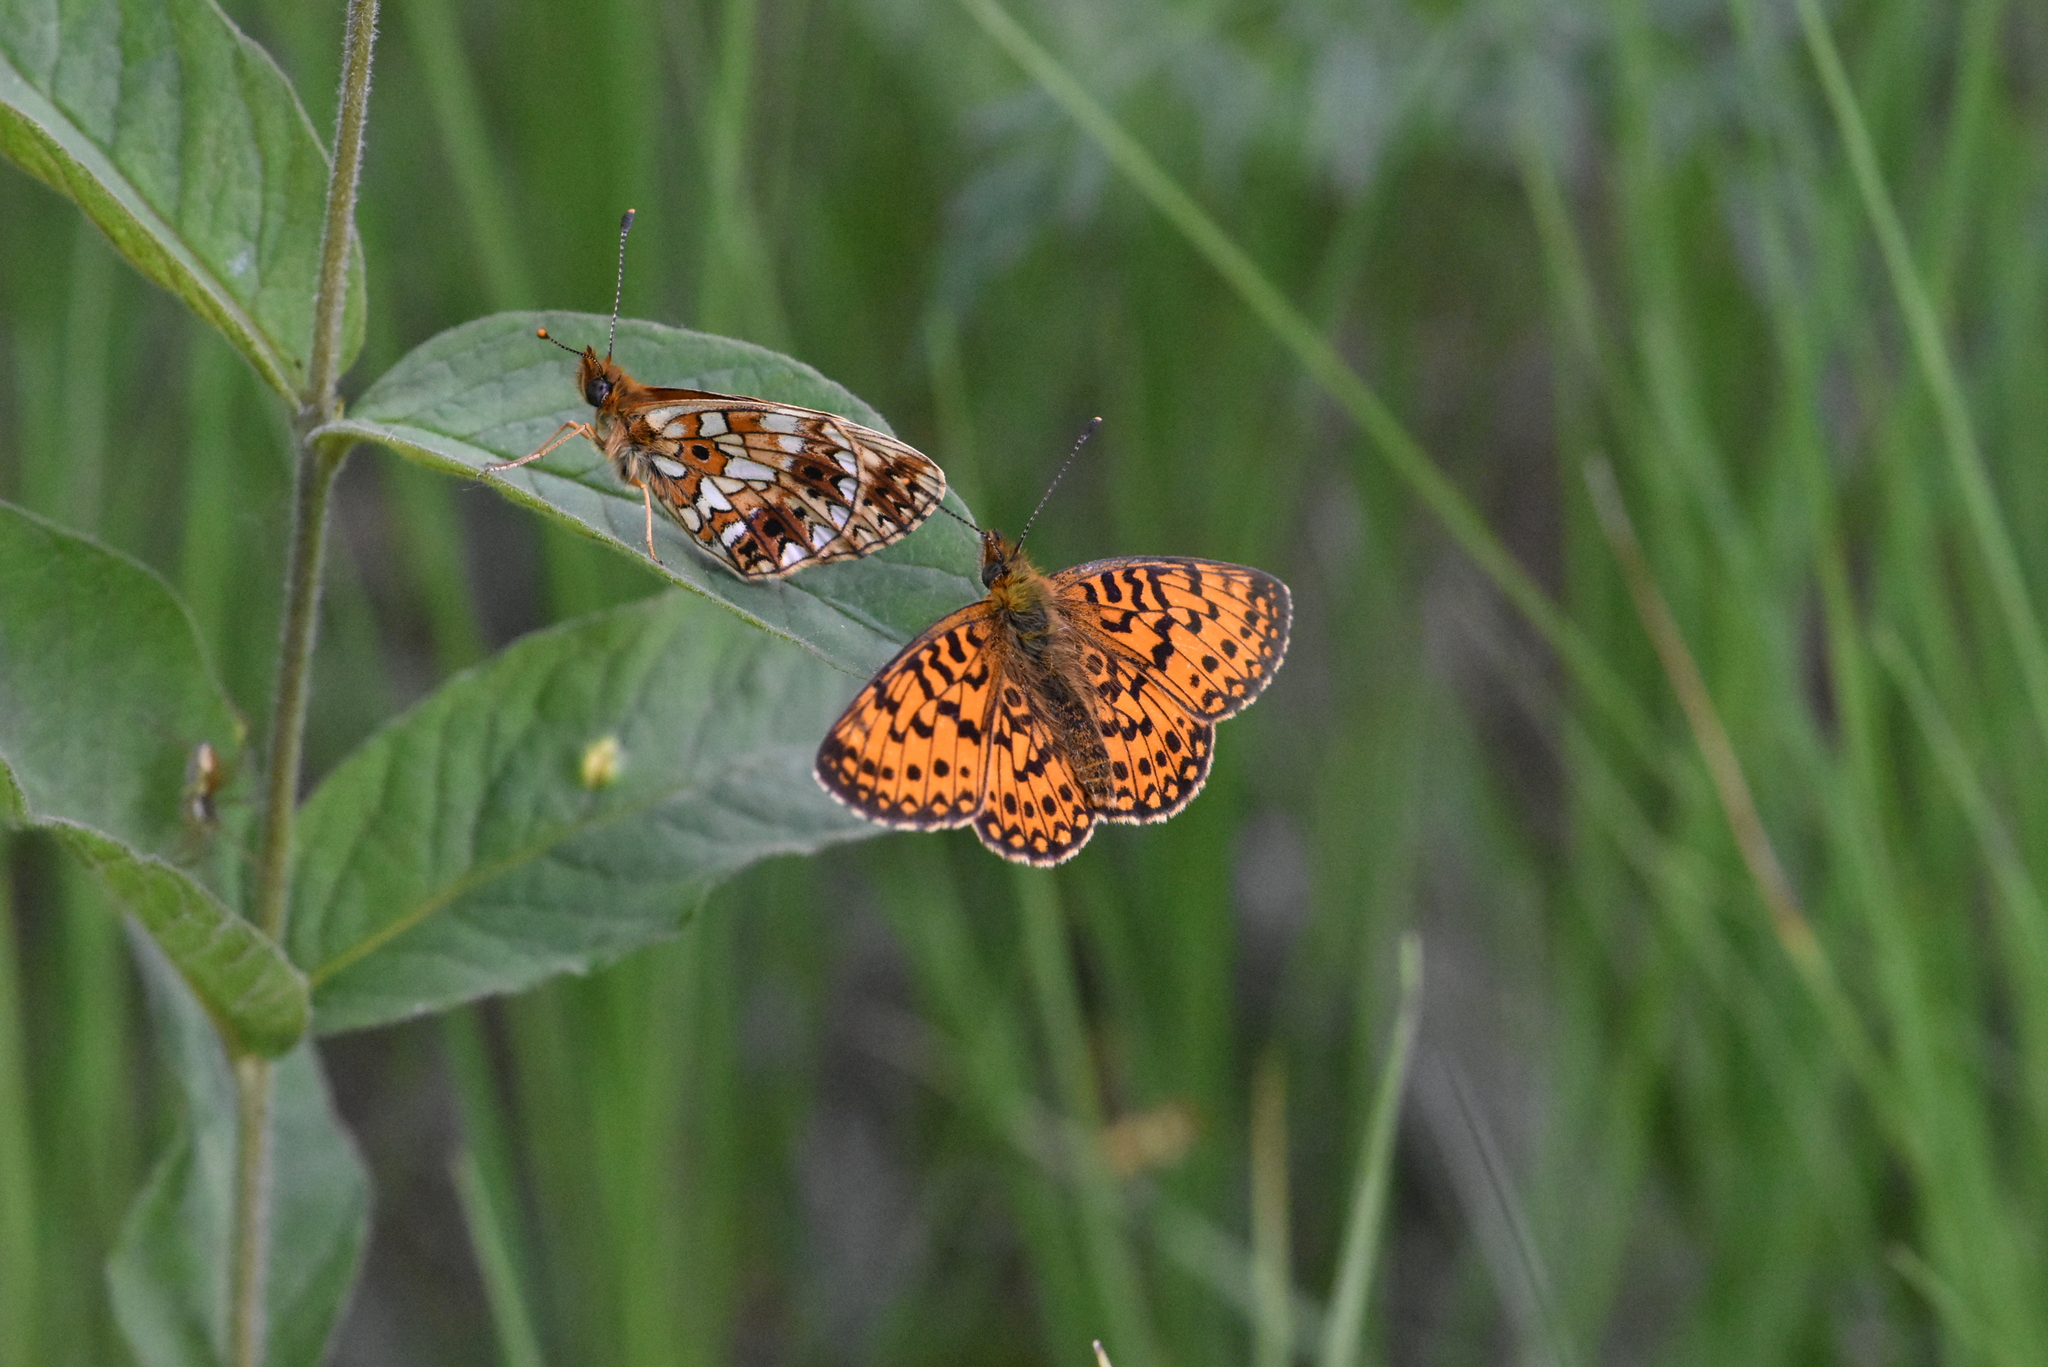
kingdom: Animalia
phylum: Arthropoda
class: Insecta
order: Lepidoptera
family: Nymphalidae
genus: Boloria
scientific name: Boloria selene
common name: Small pearl-bordered fritillary
